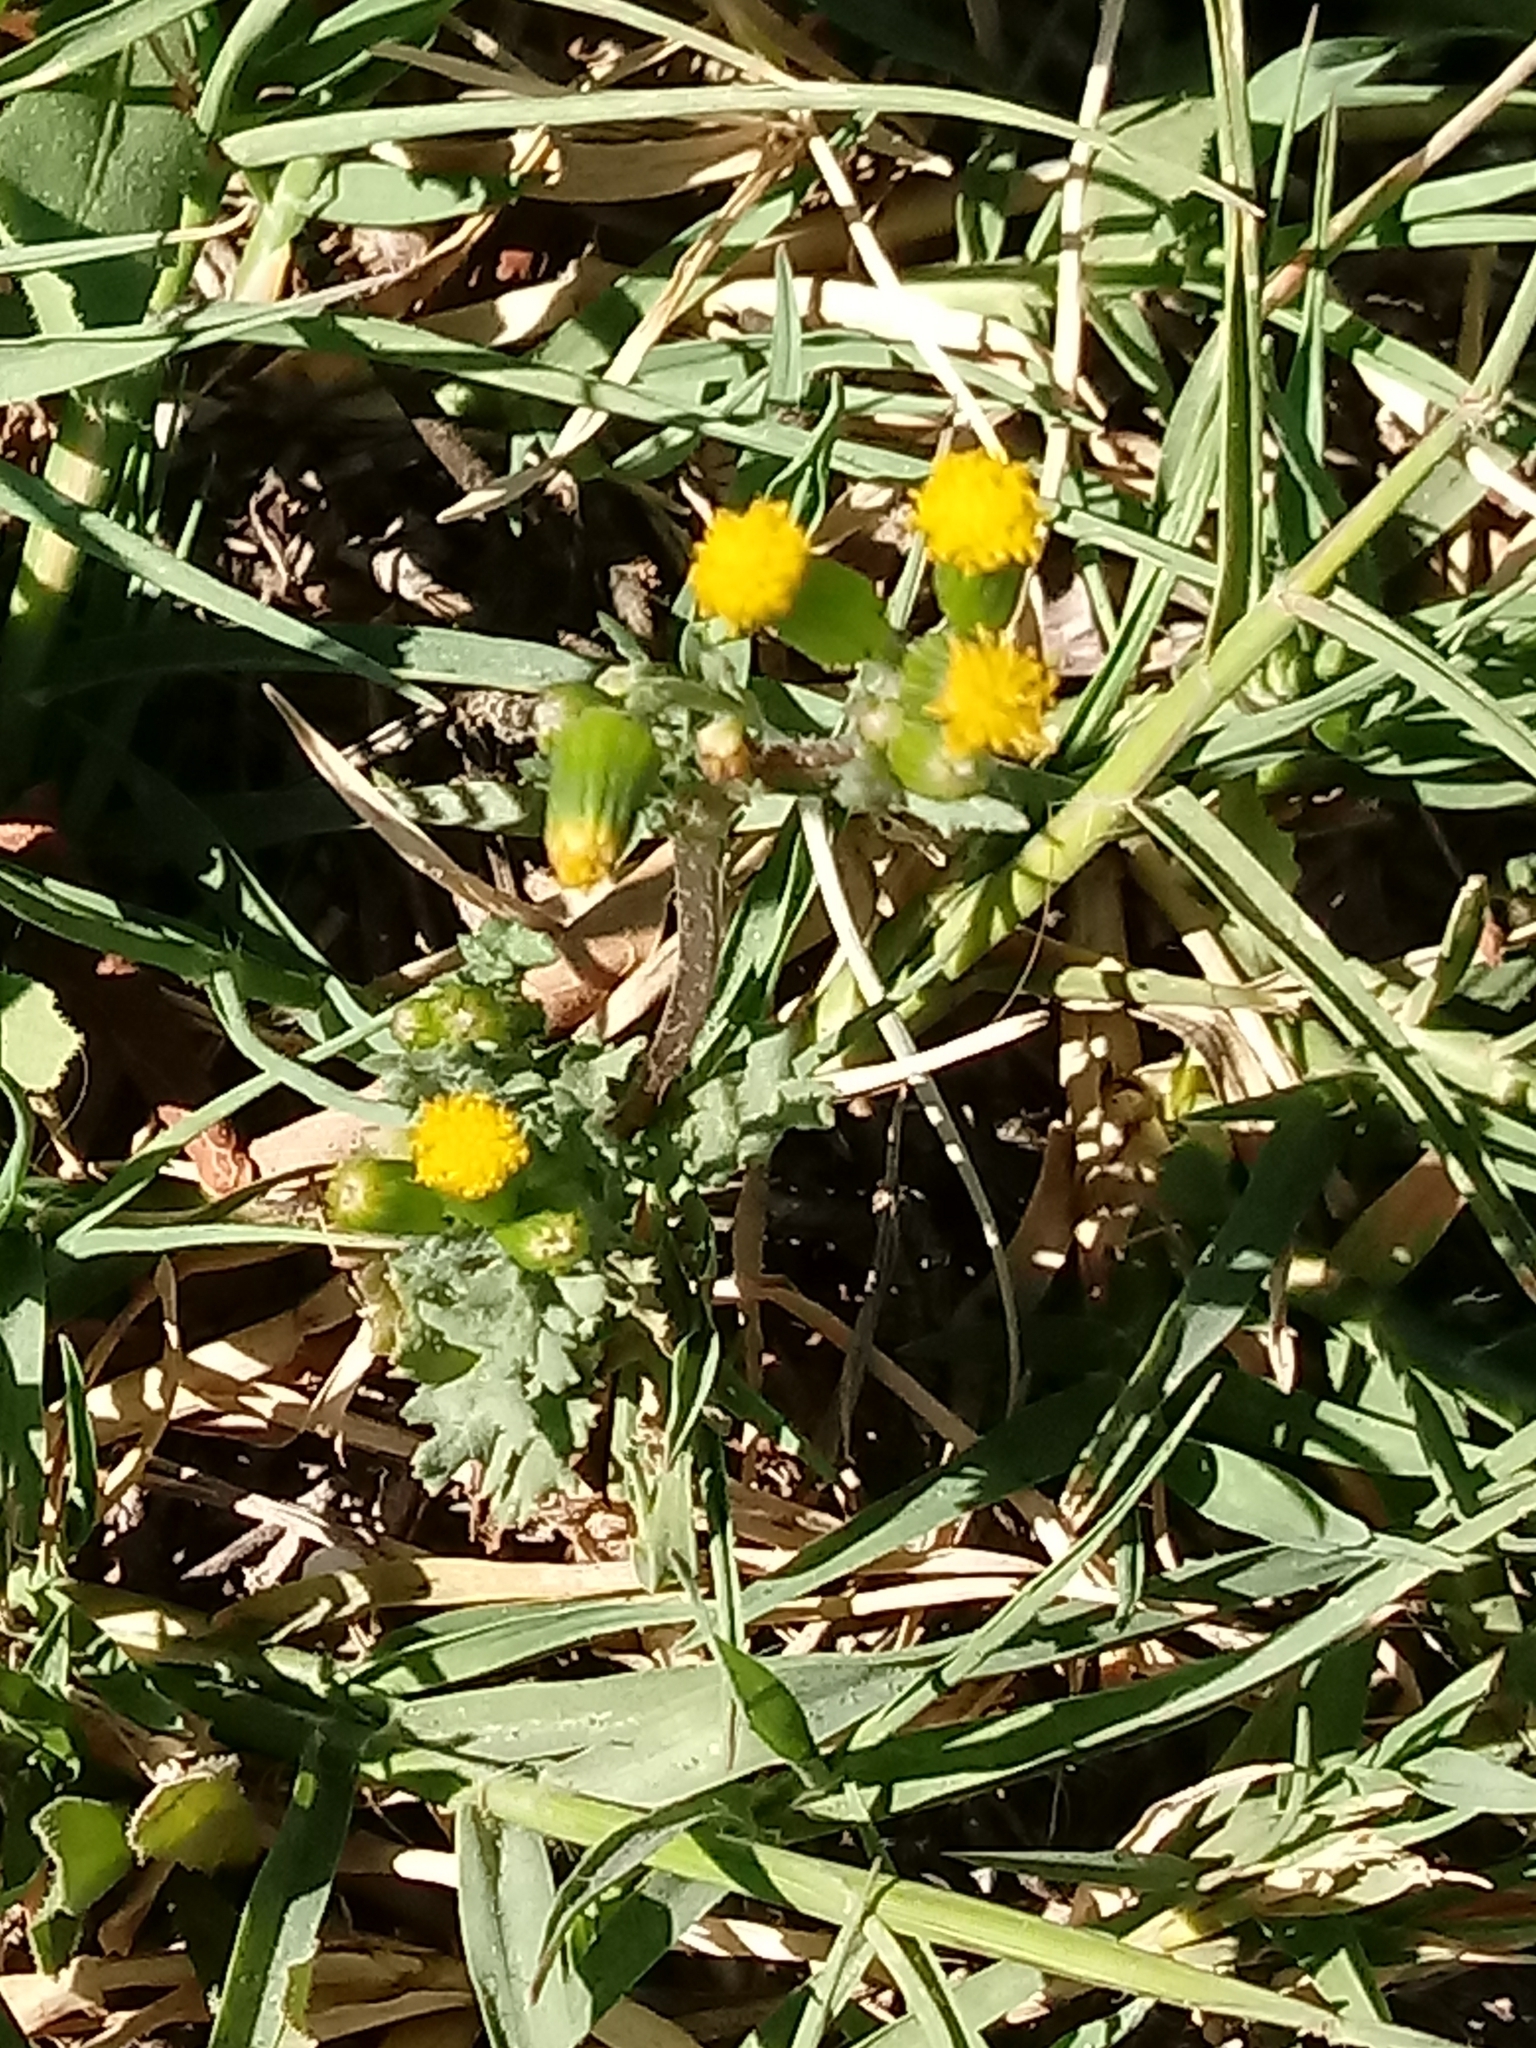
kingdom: Plantae
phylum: Tracheophyta
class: Magnoliopsida
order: Asterales
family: Asteraceae
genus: Senecio
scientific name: Senecio vulgaris
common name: Old-man-in-the-spring
